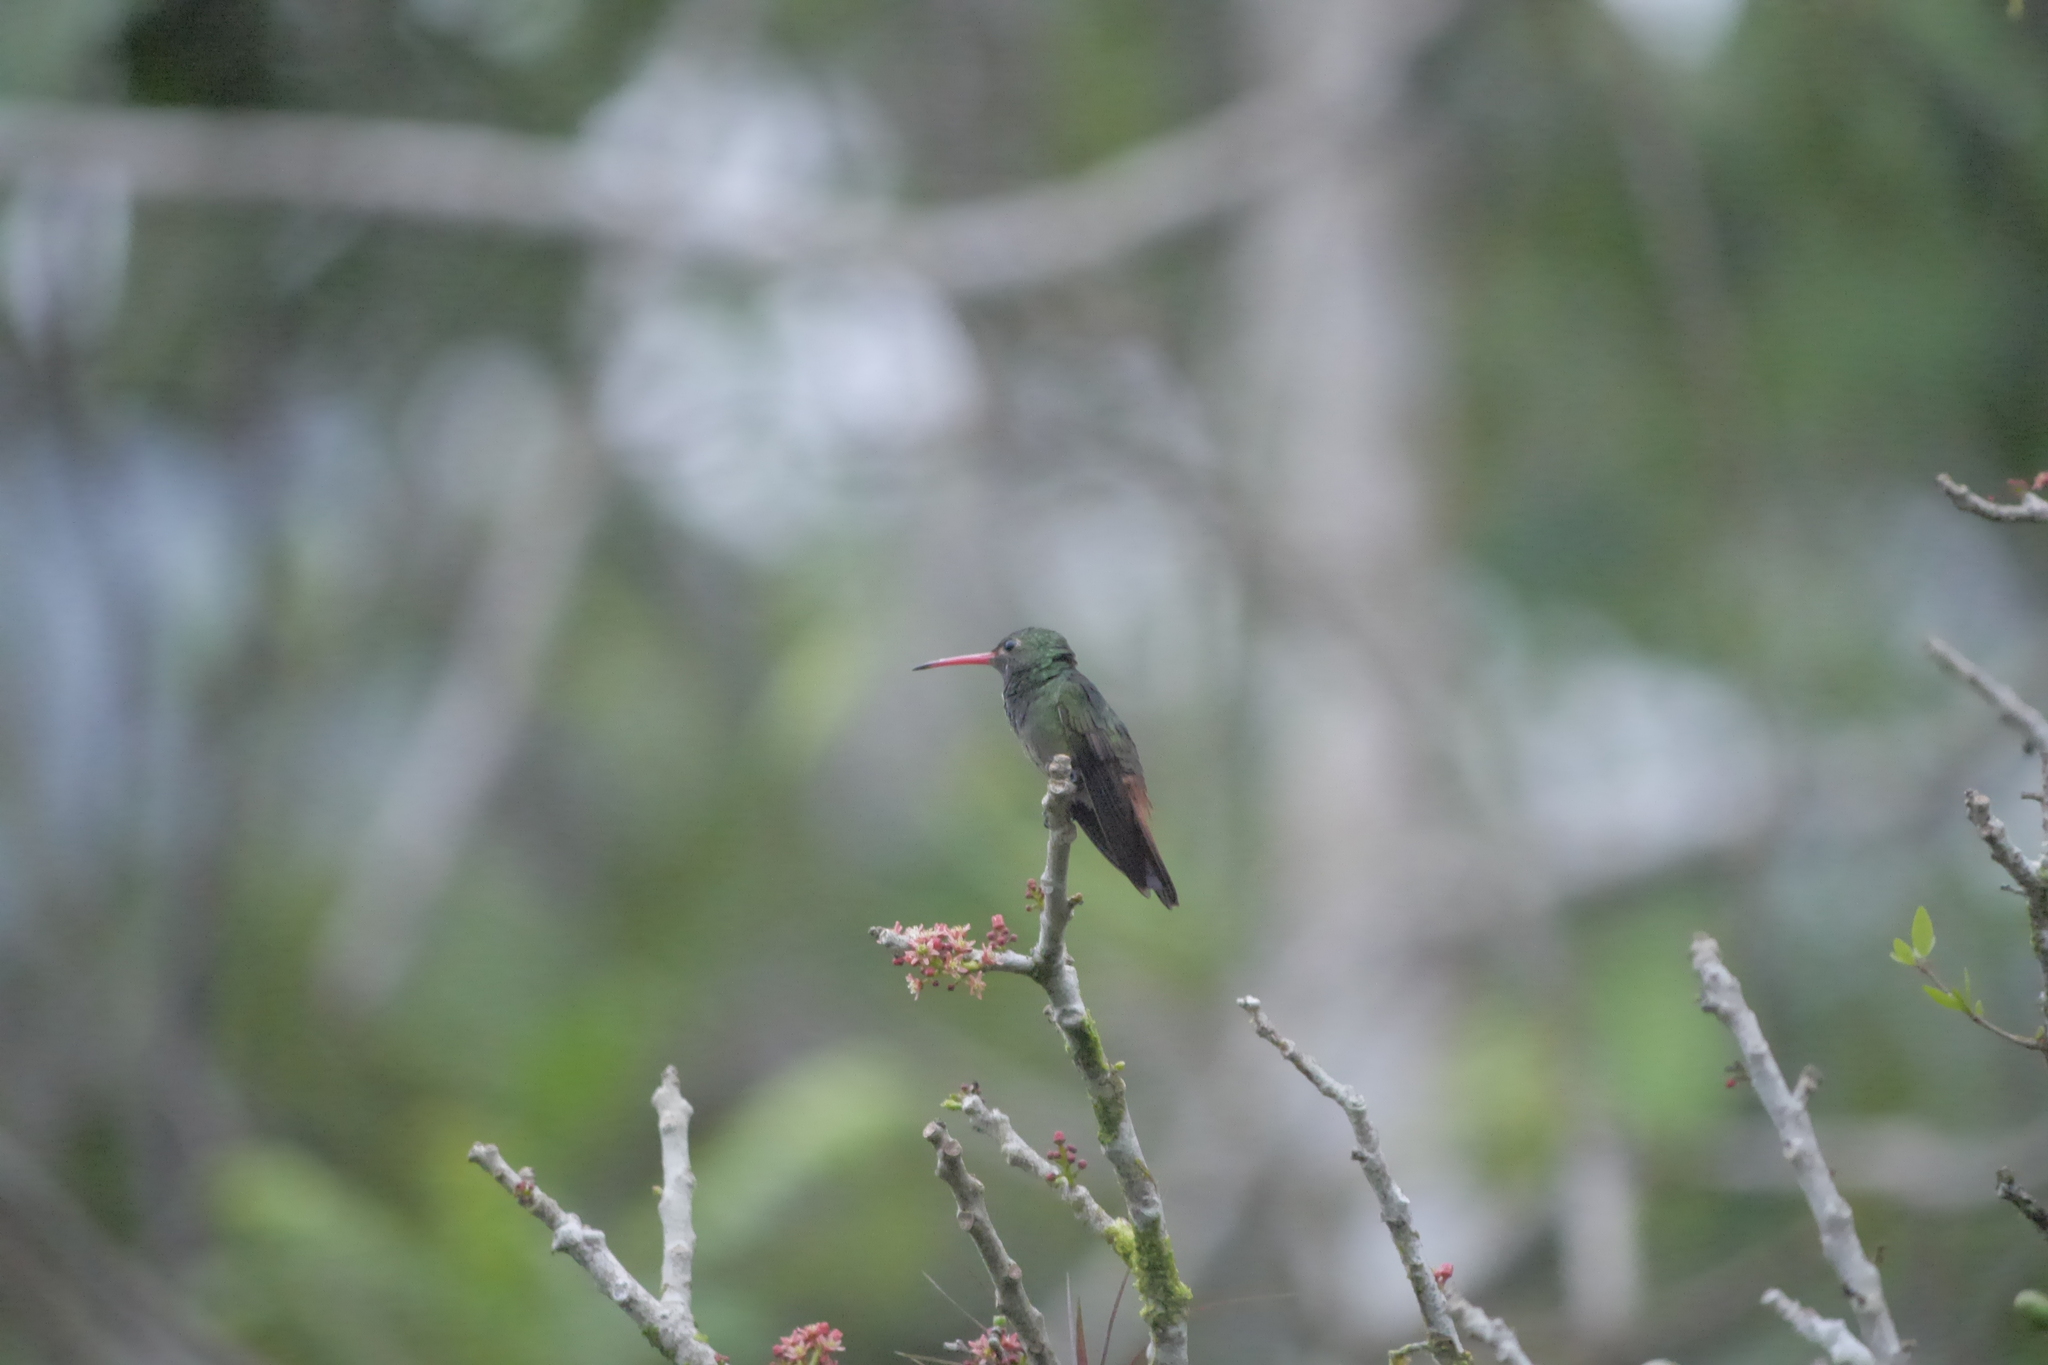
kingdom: Animalia
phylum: Chordata
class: Aves
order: Apodiformes
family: Trochilidae
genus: Amazilia
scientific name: Amazilia tzacatl
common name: Rufous-tailed hummingbird
